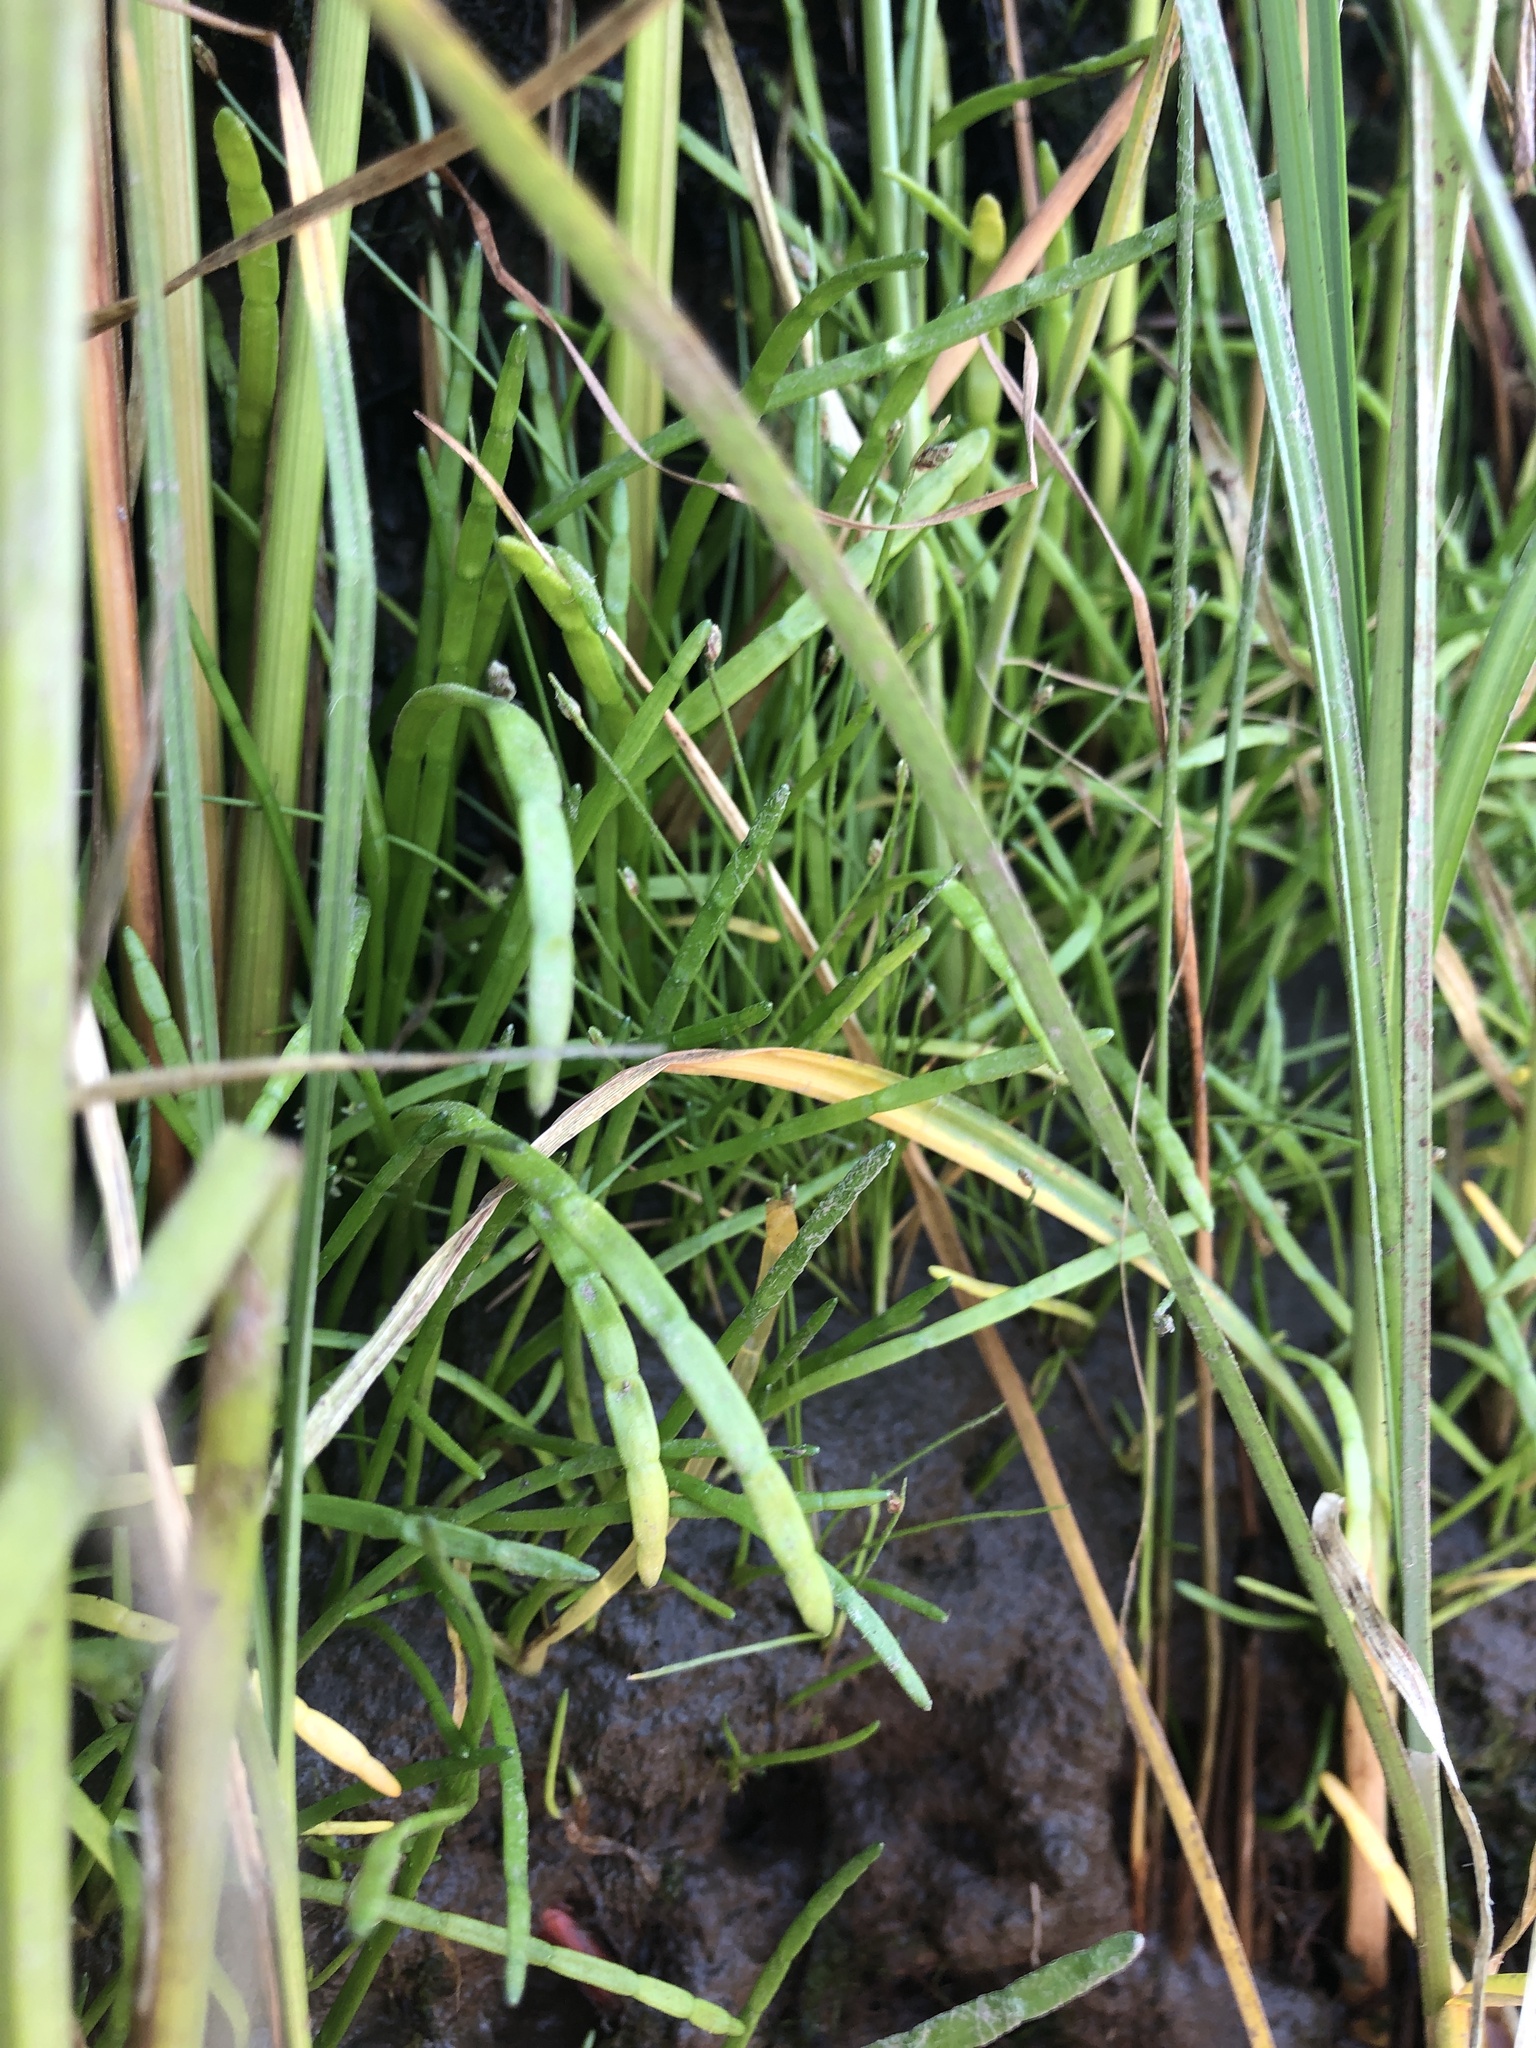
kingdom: Plantae
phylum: Tracheophyta
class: Liliopsida
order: Poales
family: Cyperaceae
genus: Isolepis
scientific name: Isolepis cernua
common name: Slender club-rush
